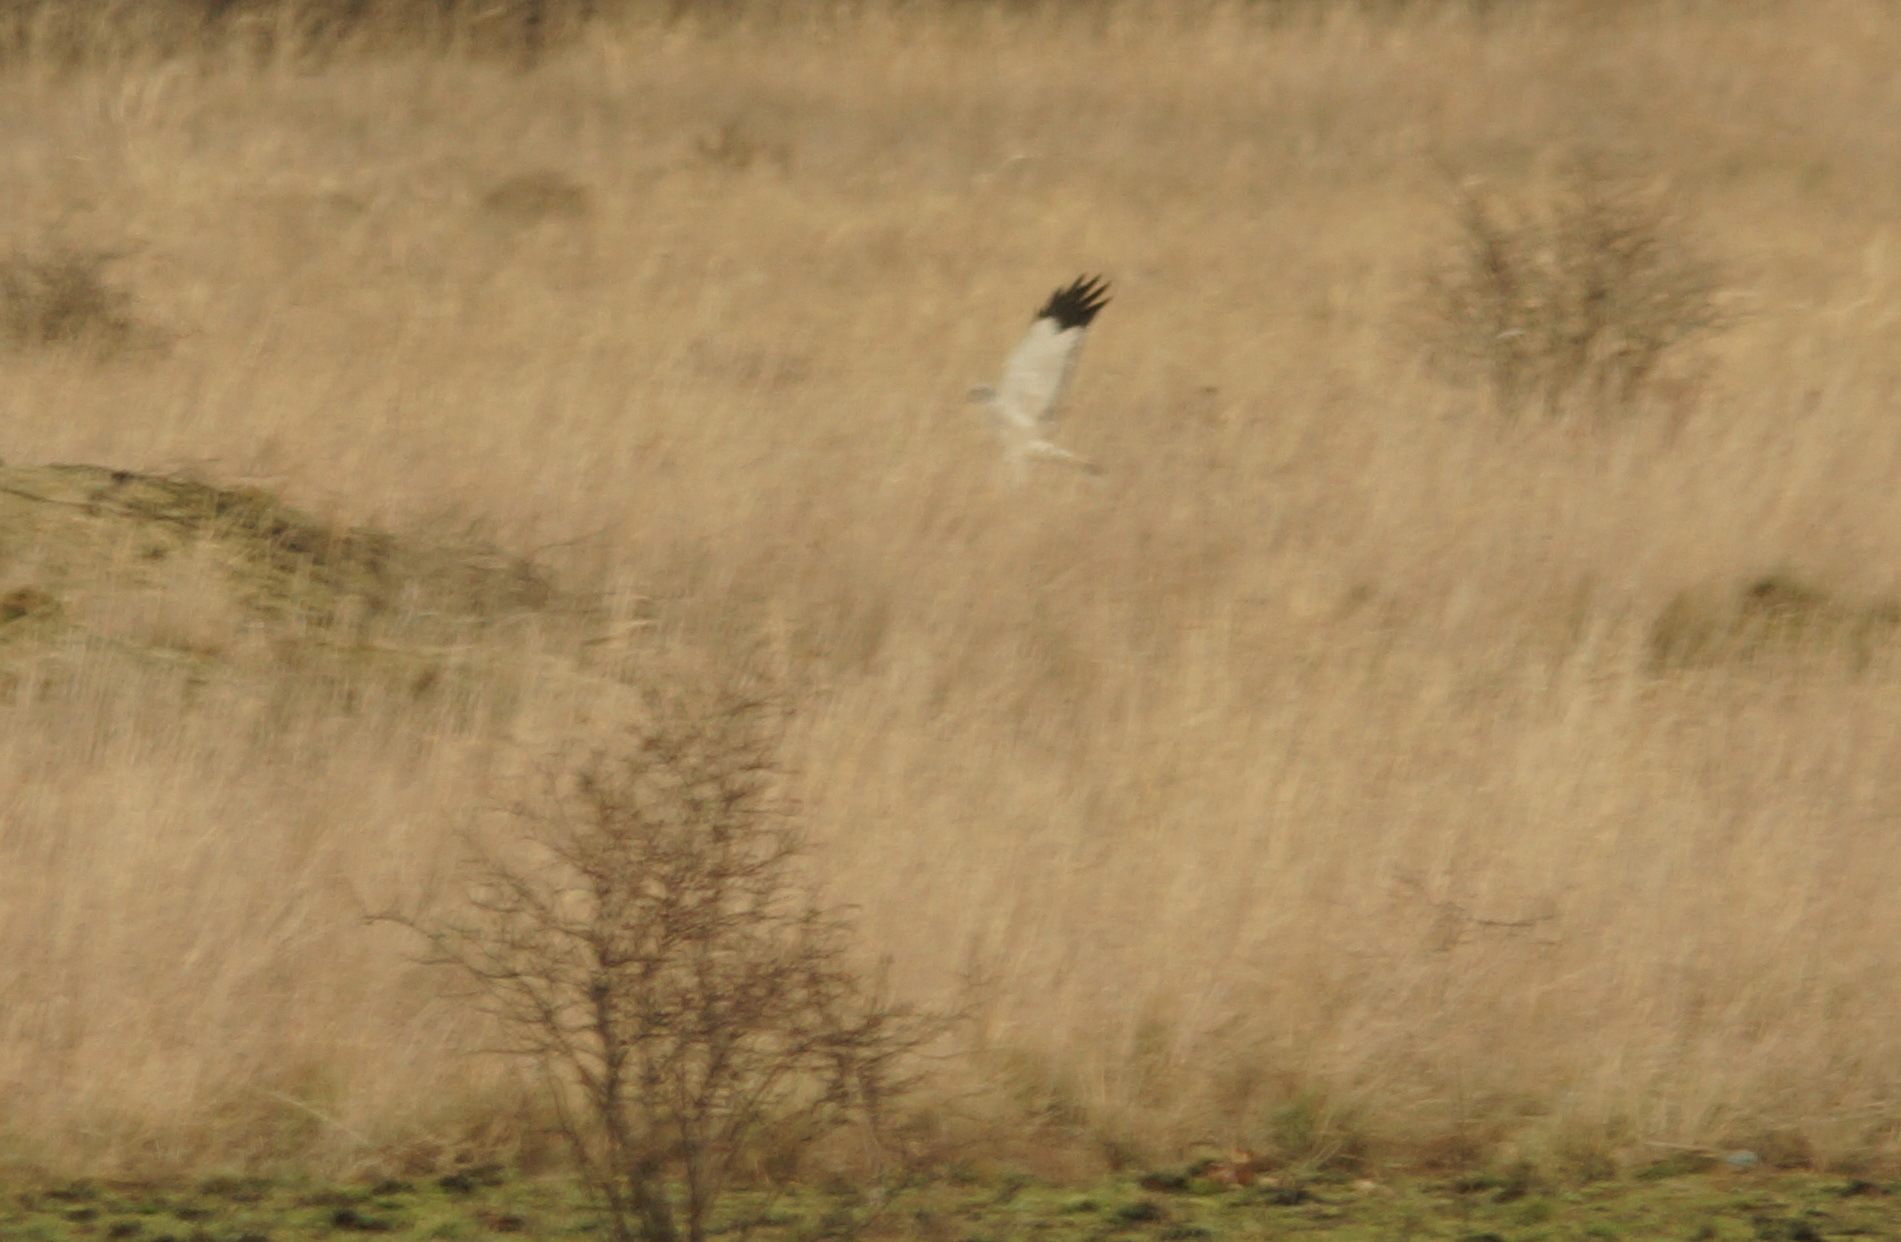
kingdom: Animalia
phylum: Chordata
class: Aves
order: Accipitriformes
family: Accipitridae
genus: Circus
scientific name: Circus cyaneus
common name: Hen harrier
